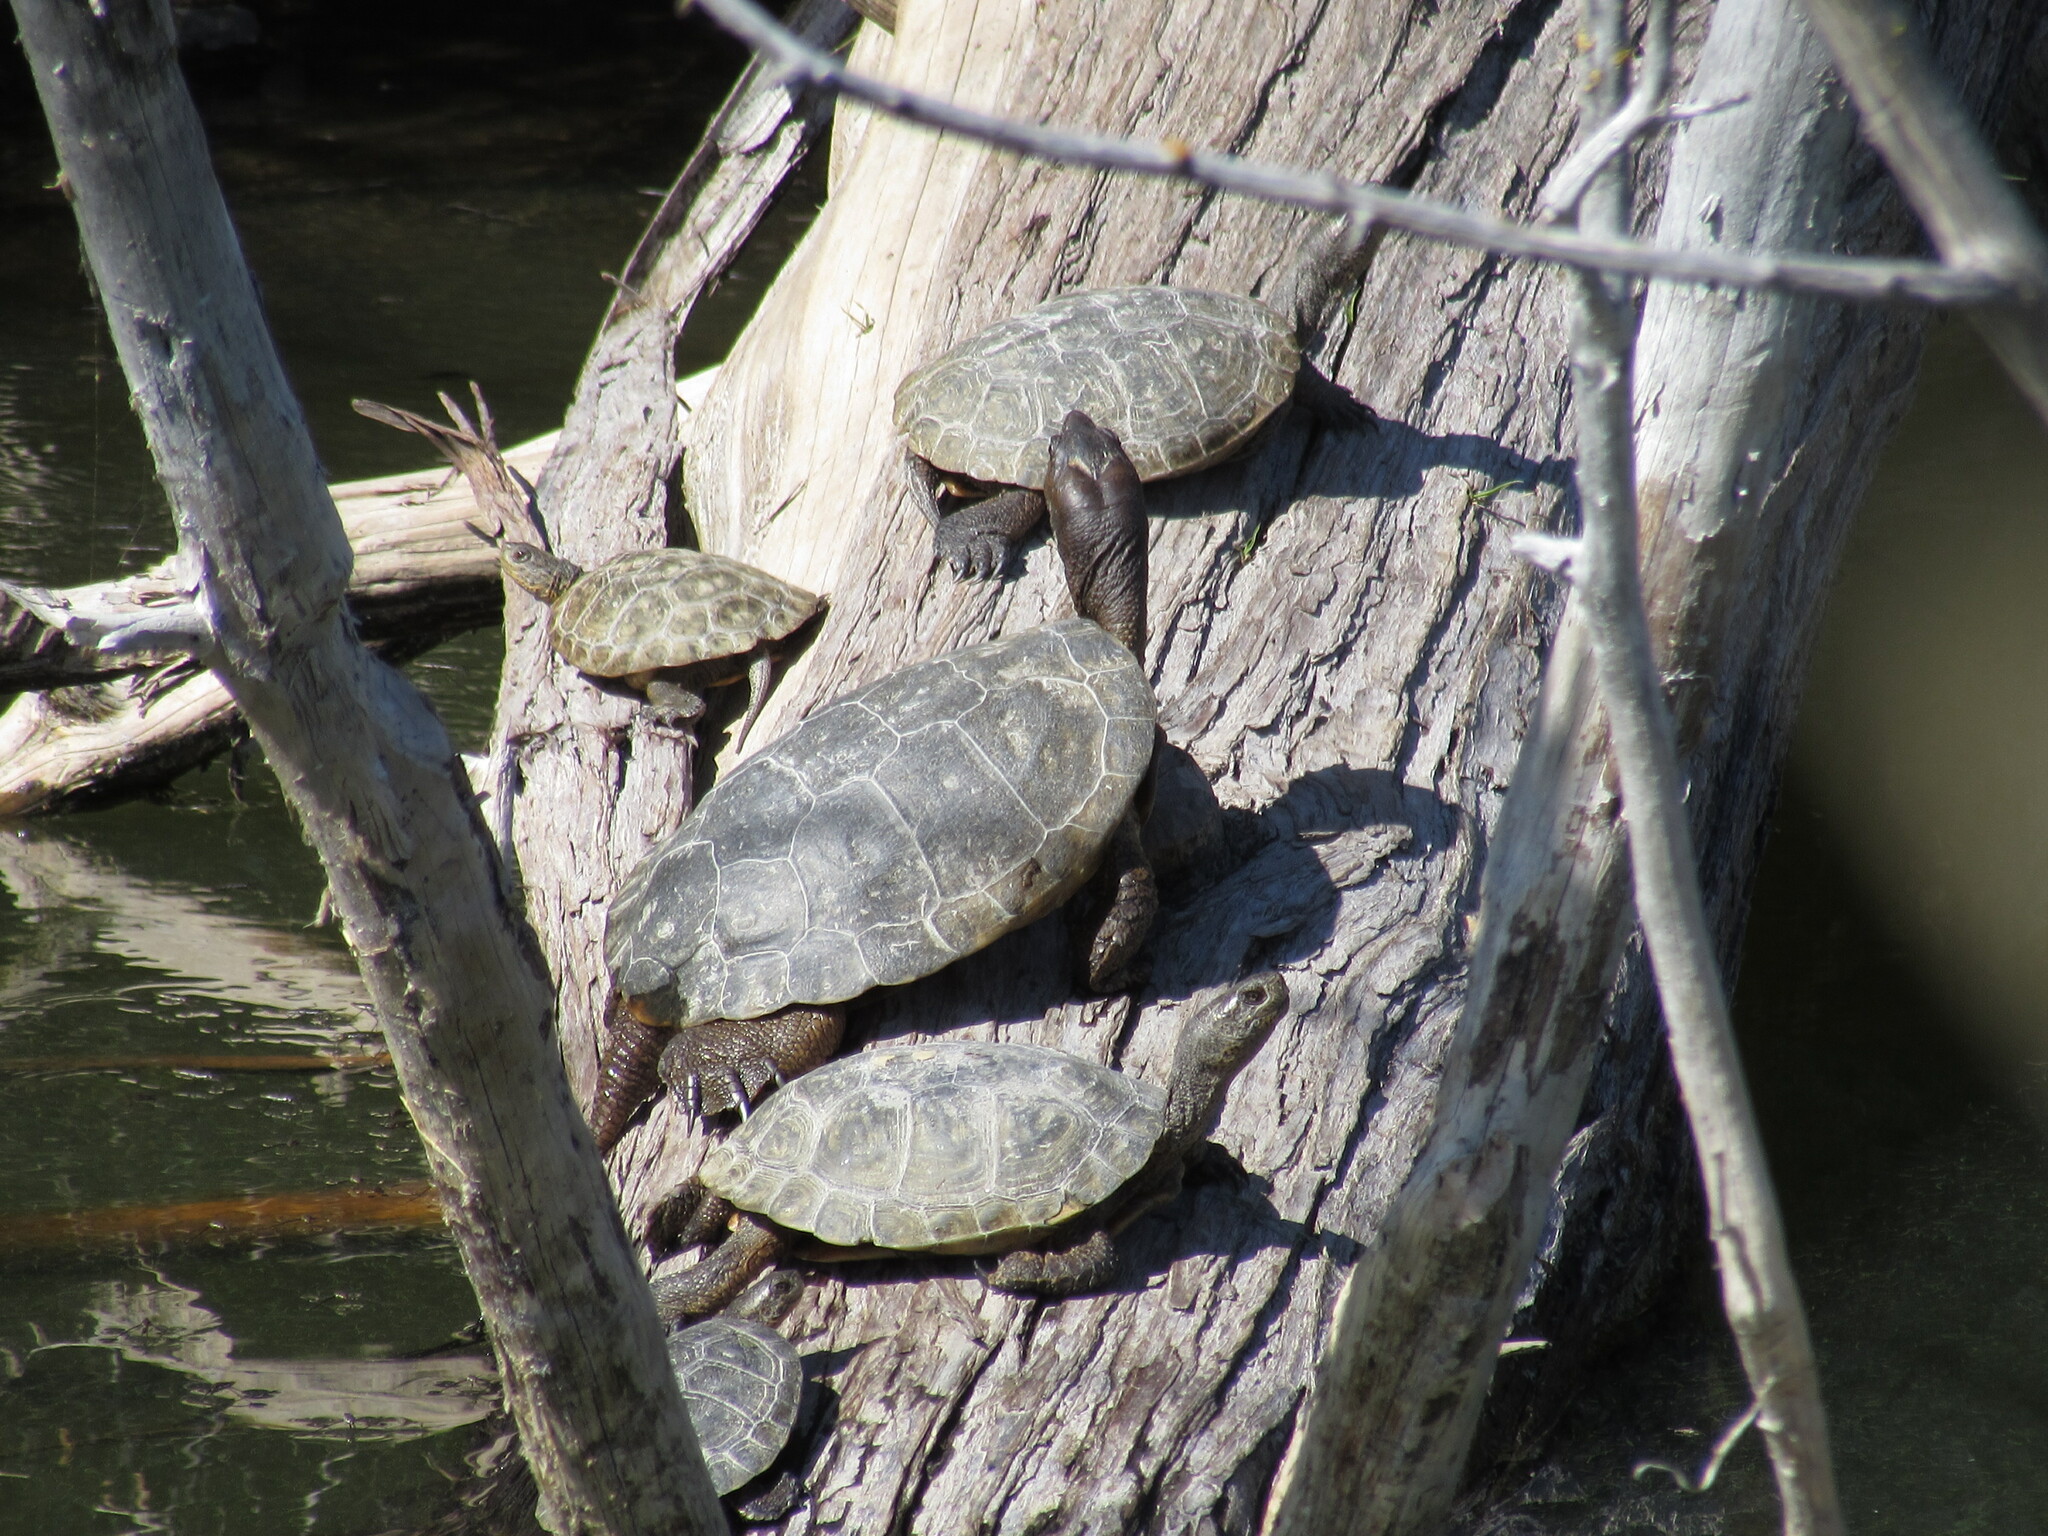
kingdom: Animalia
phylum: Chordata
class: Testudines
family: Emydidae
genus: Actinemys
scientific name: Actinemys marmorata
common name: Western pond turtle
